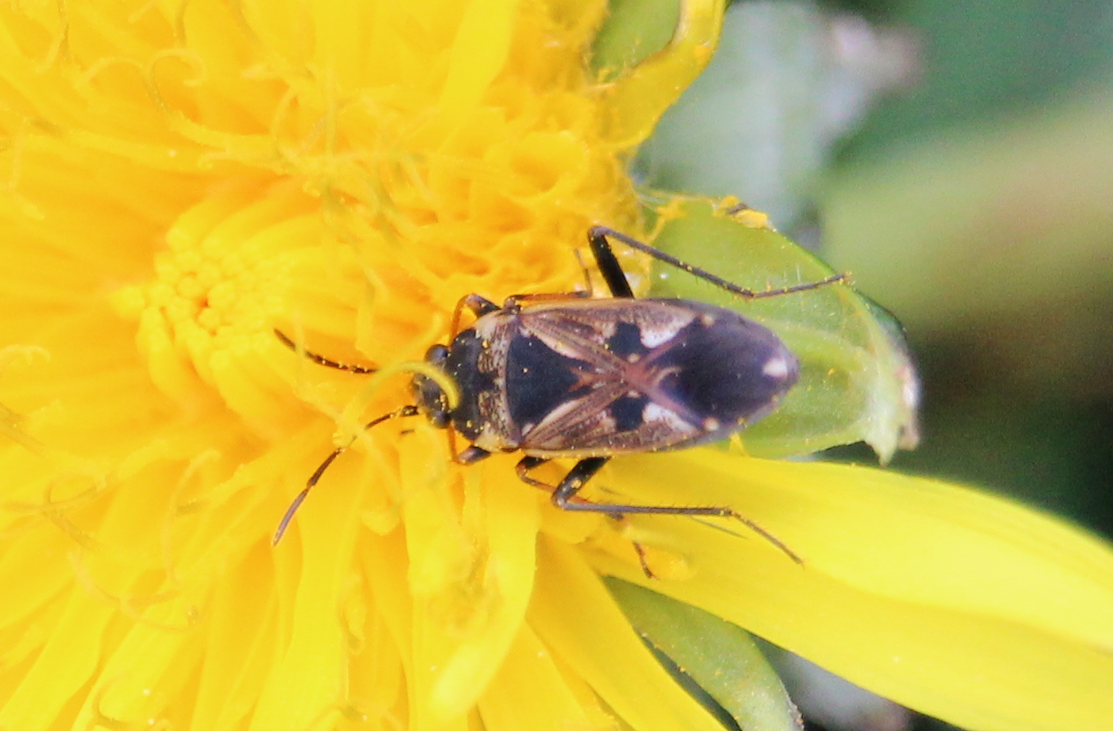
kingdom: Animalia
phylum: Arthropoda
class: Insecta
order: Hemiptera
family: Rhyparochromidae
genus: Rhyparochromus
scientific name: Rhyparochromus vulgaris
